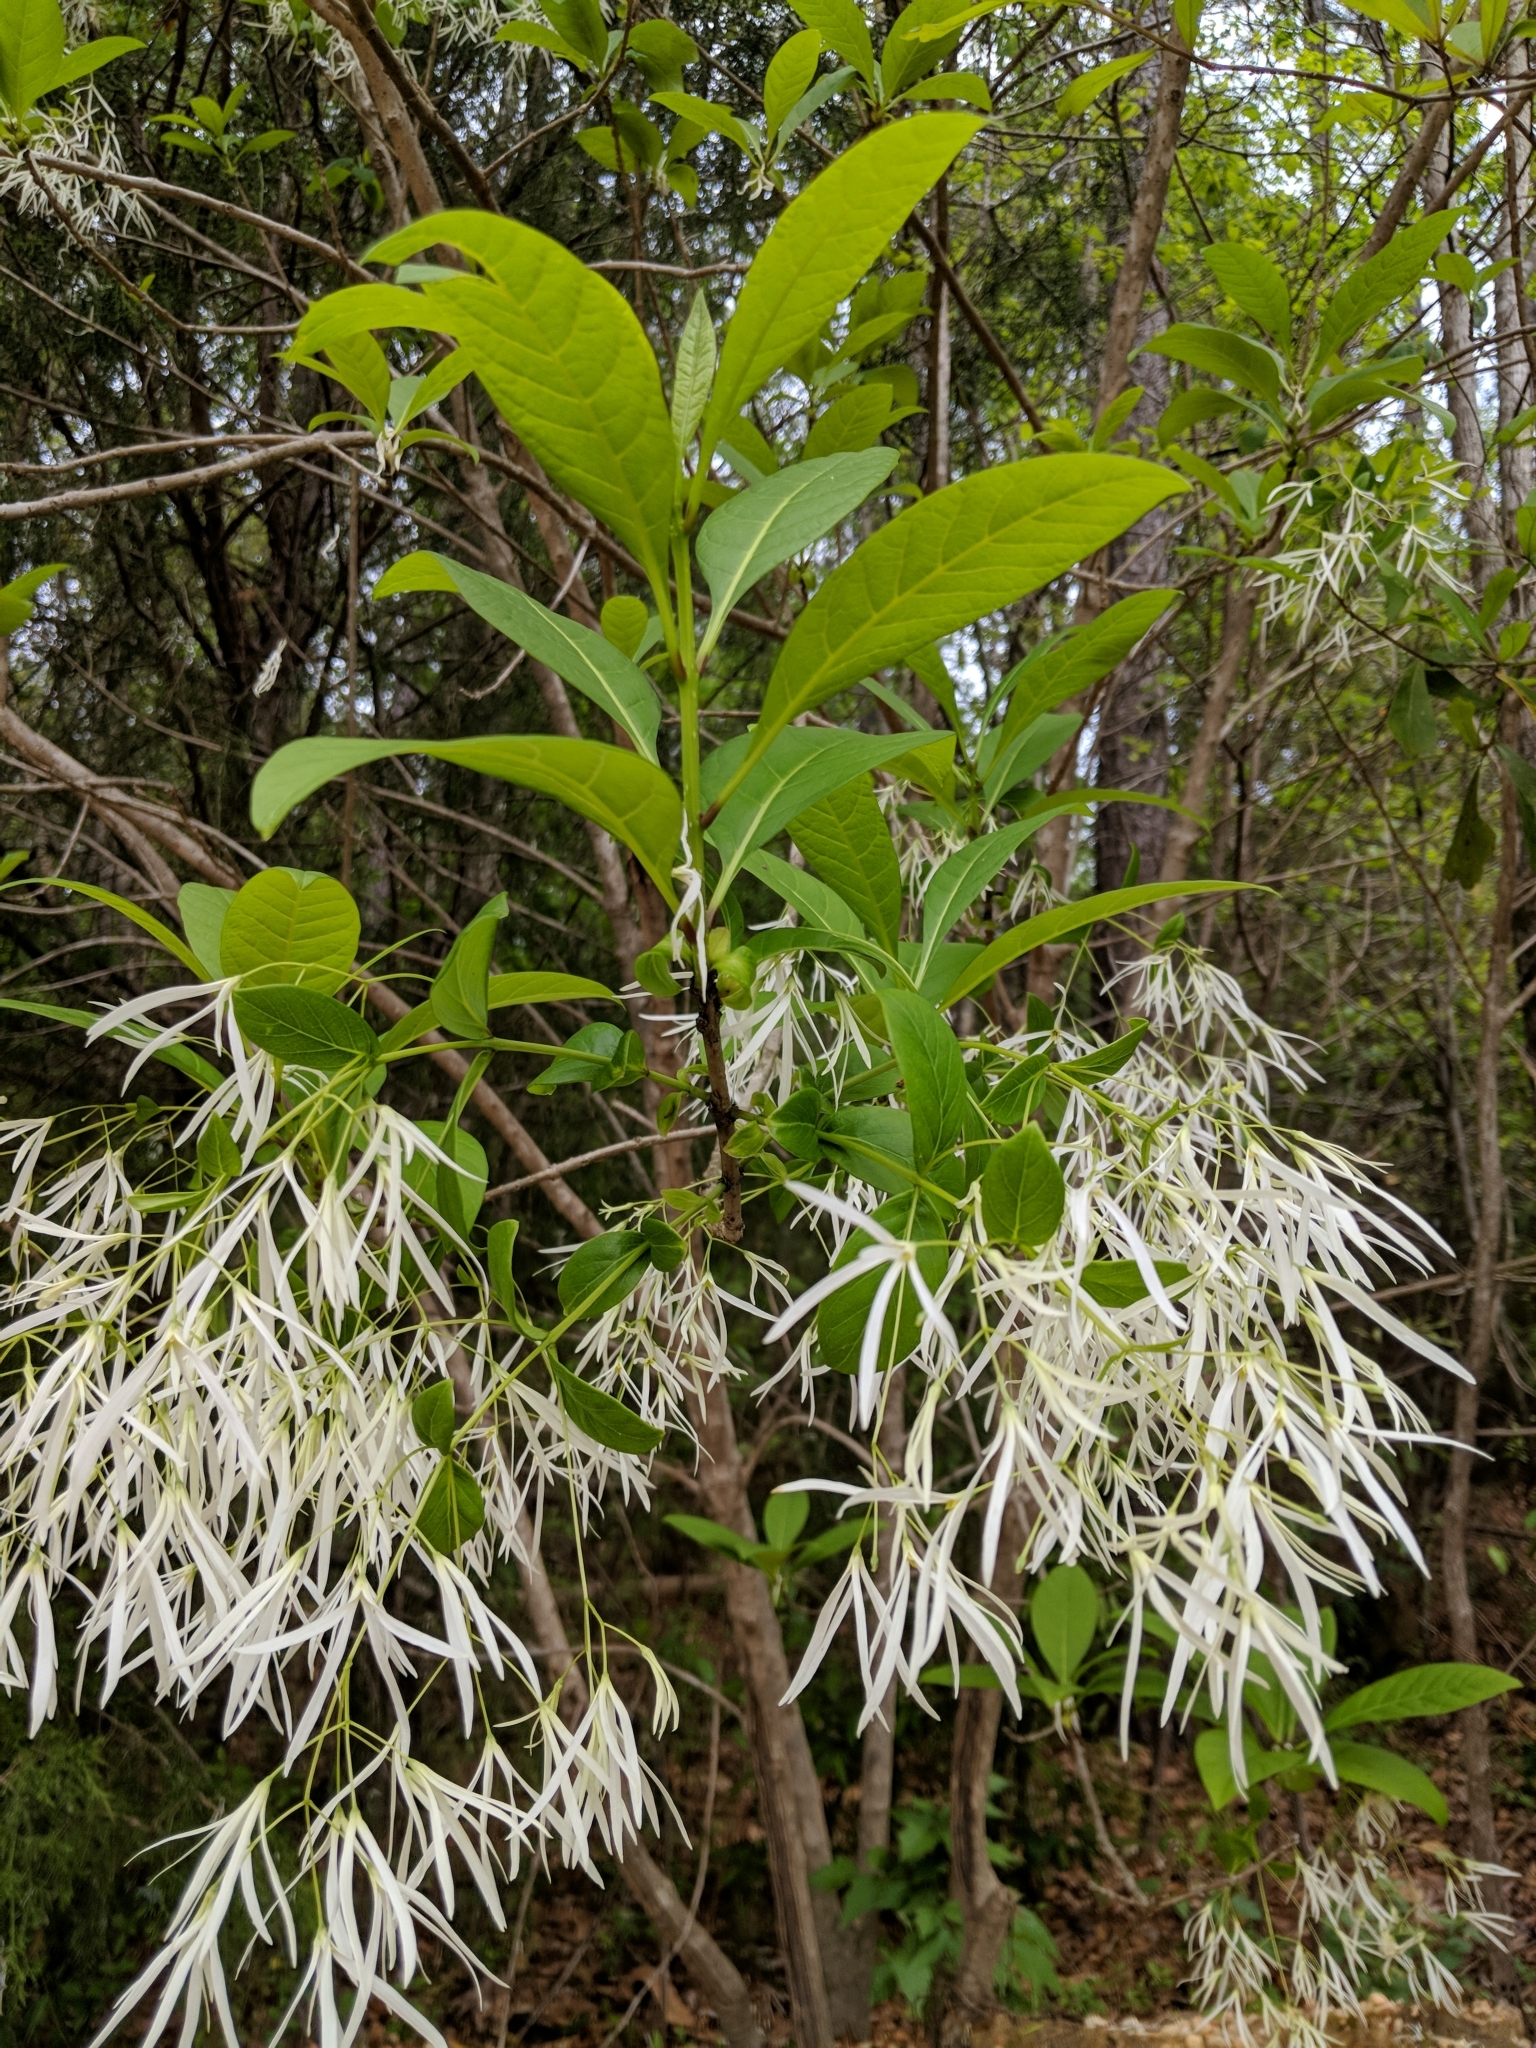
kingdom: Plantae
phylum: Tracheophyta
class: Magnoliopsida
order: Lamiales
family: Oleaceae
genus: Chionanthus
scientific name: Chionanthus virginicus
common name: American fringetree
